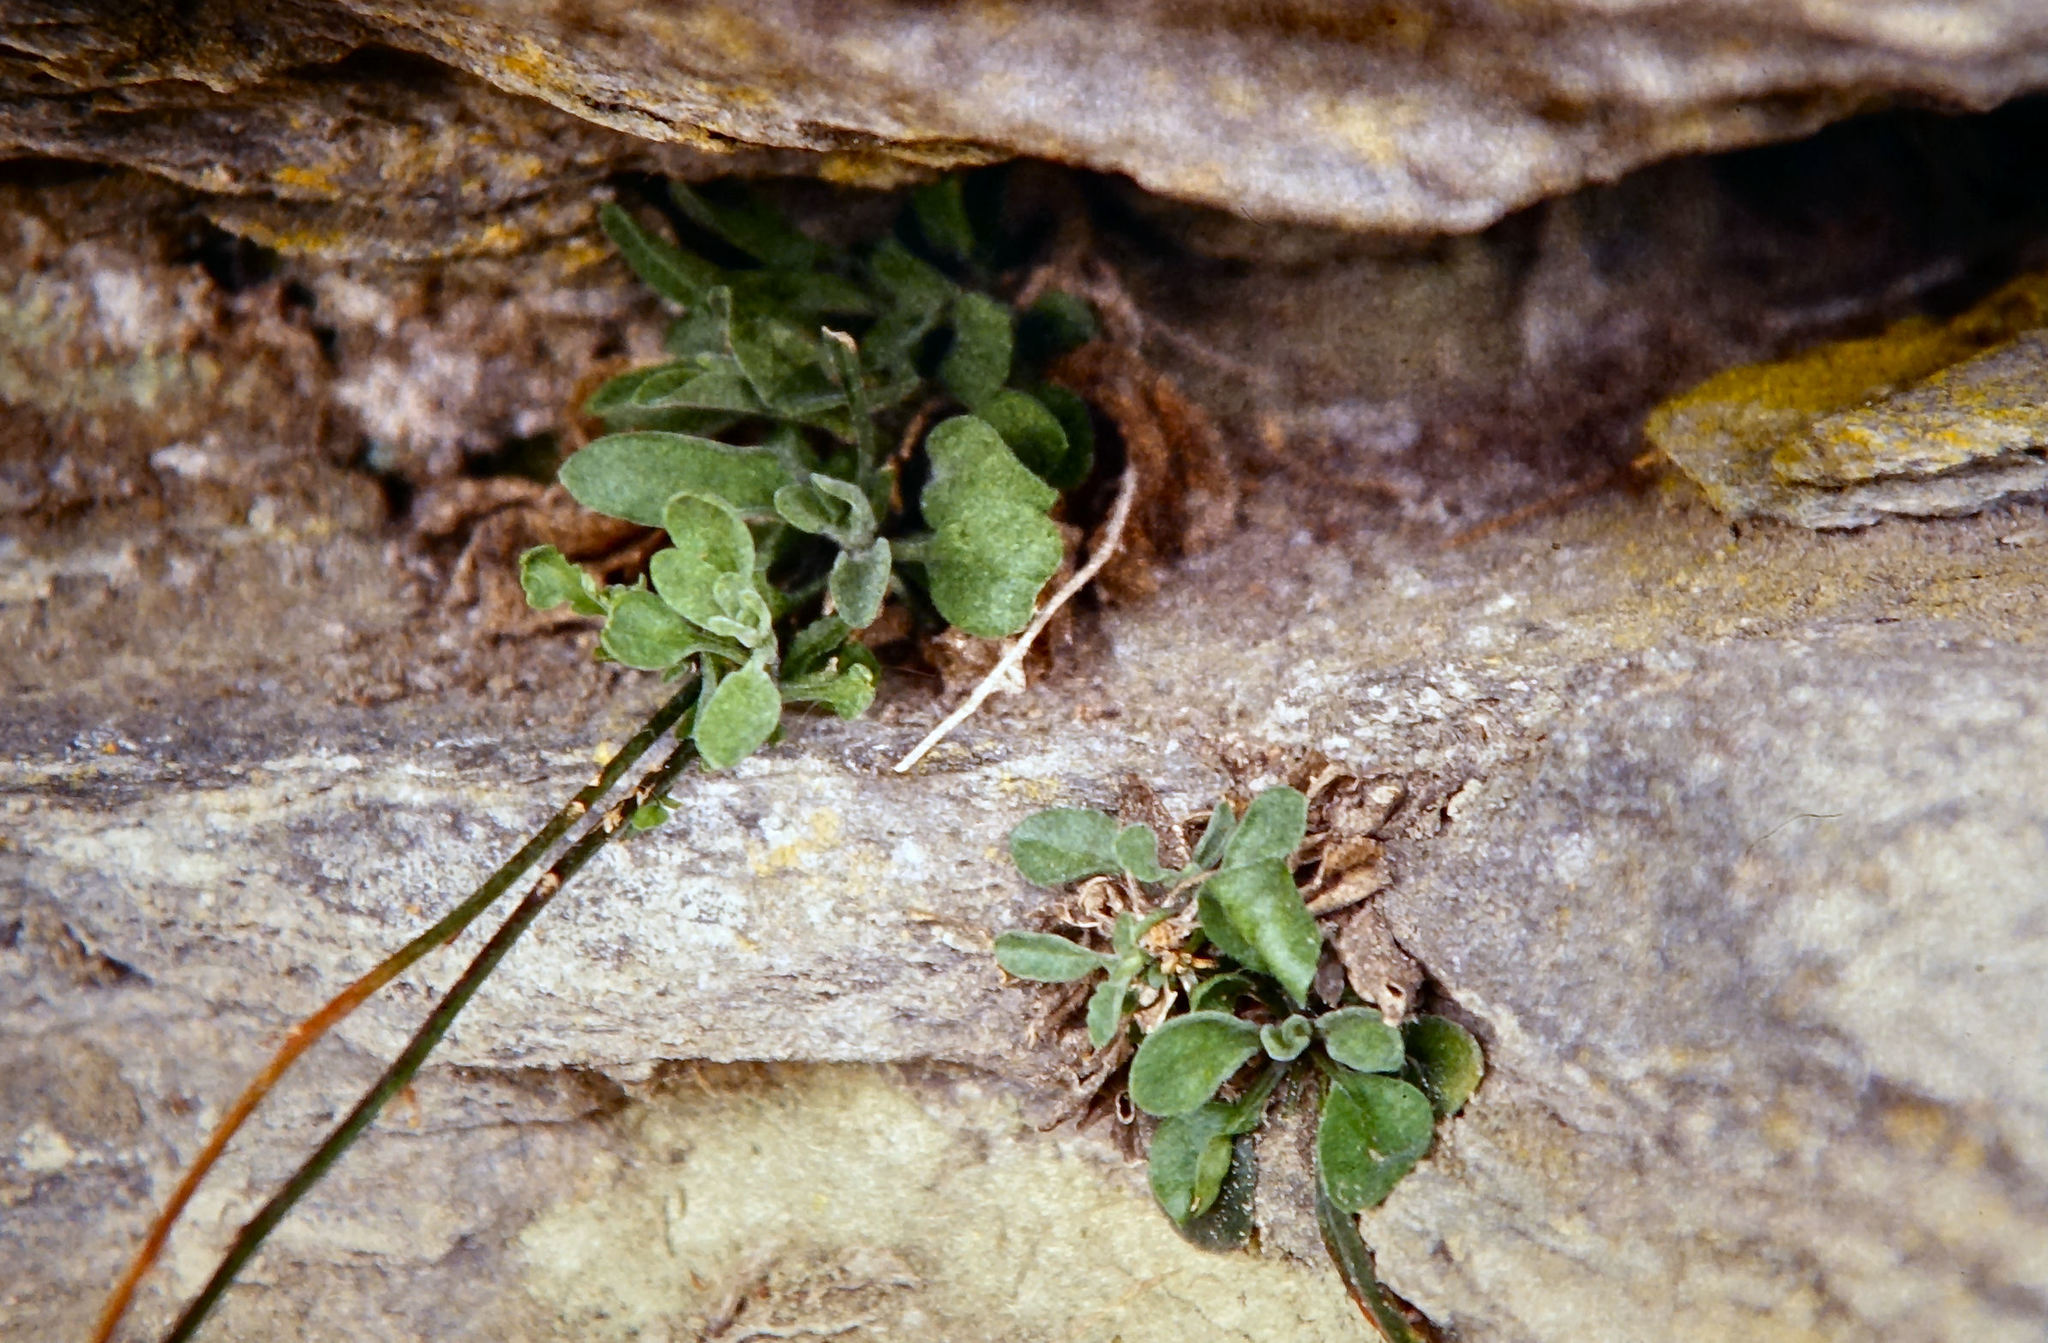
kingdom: Plantae
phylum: Tracheophyta
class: Magnoliopsida
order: Brassicales
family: Brassicaceae
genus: Pachycladon
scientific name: Pachycladon cheesemanii
